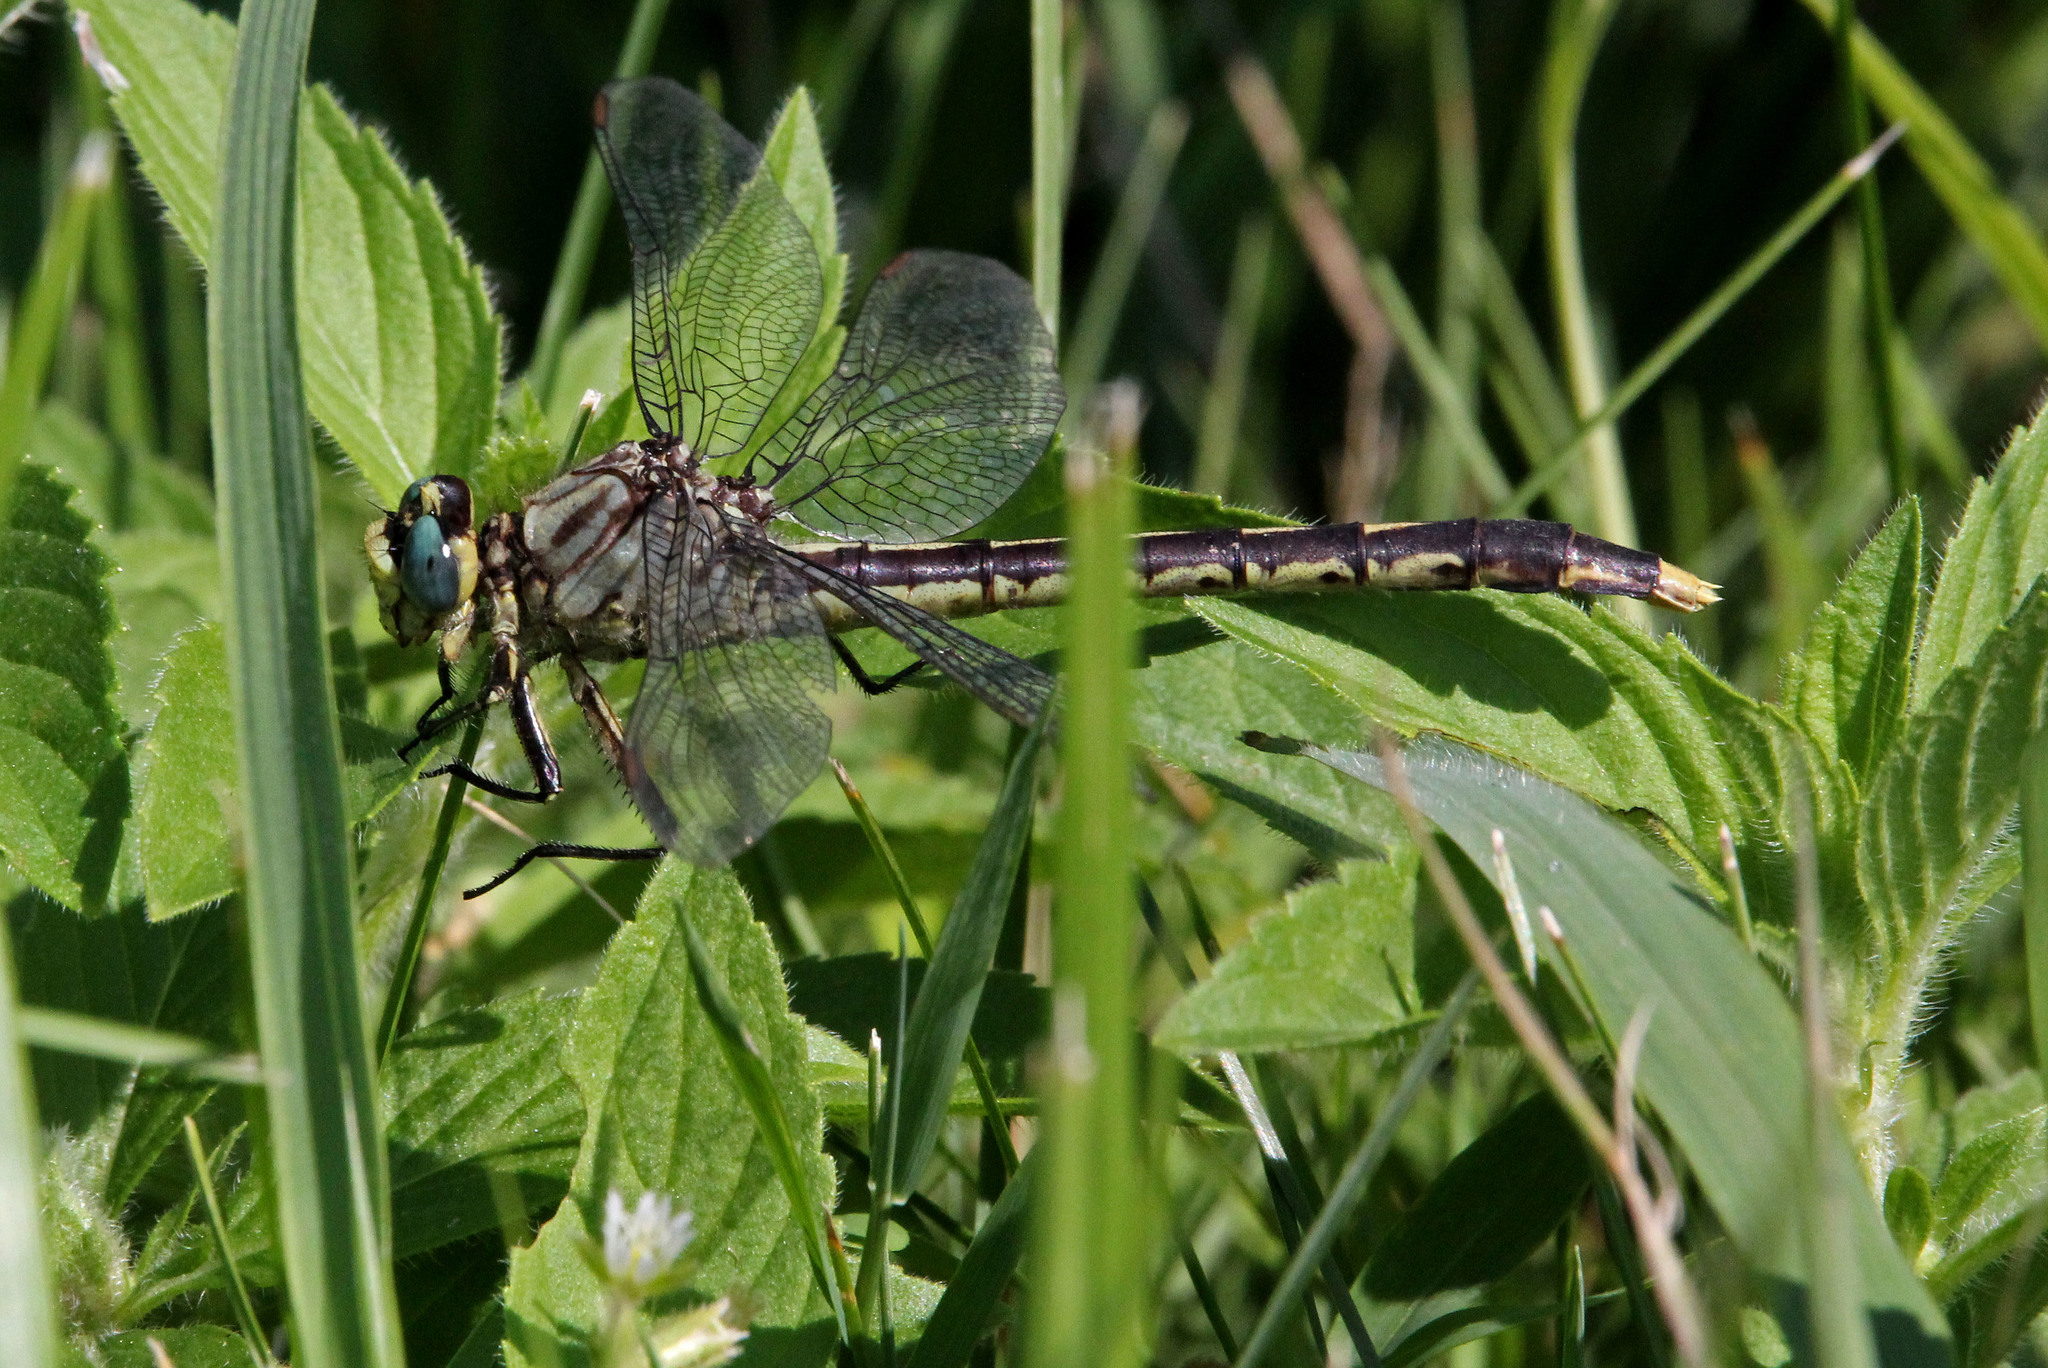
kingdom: Animalia
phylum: Arthropoda
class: Insecta
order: Odonata
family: Gomphidae
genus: Arigomphus
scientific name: Arigomphus villosipes
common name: Unicorn clubtail
